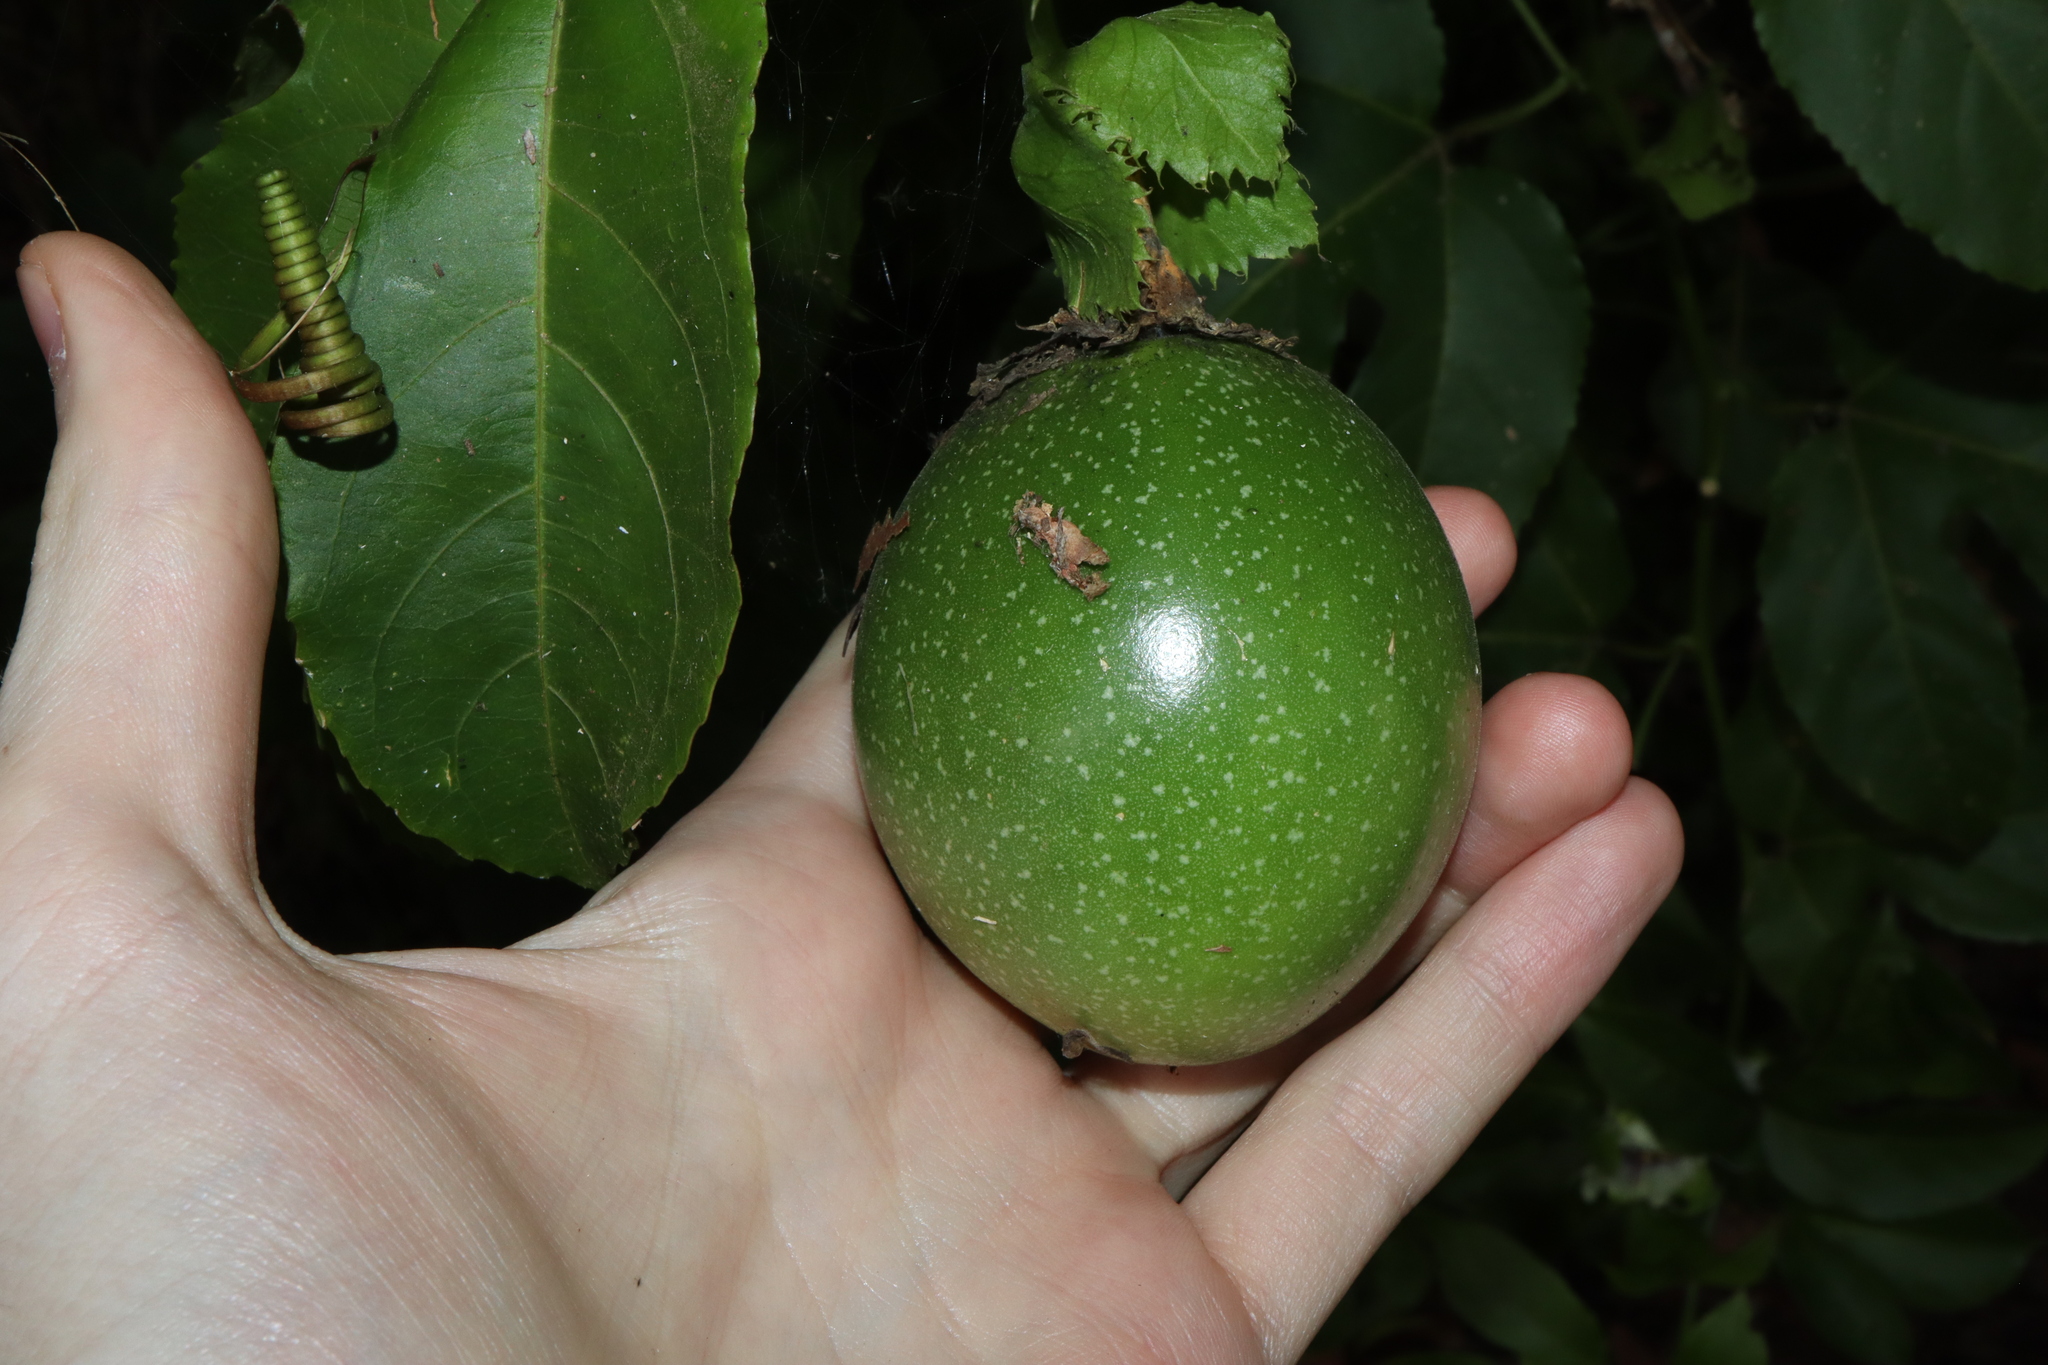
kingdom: Plantae
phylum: Tracheophyta
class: Magnoliopsida
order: Malpighiales
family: Passifloraceae
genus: Passiflora
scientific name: Passiflora edulis
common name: Purple granadilla
